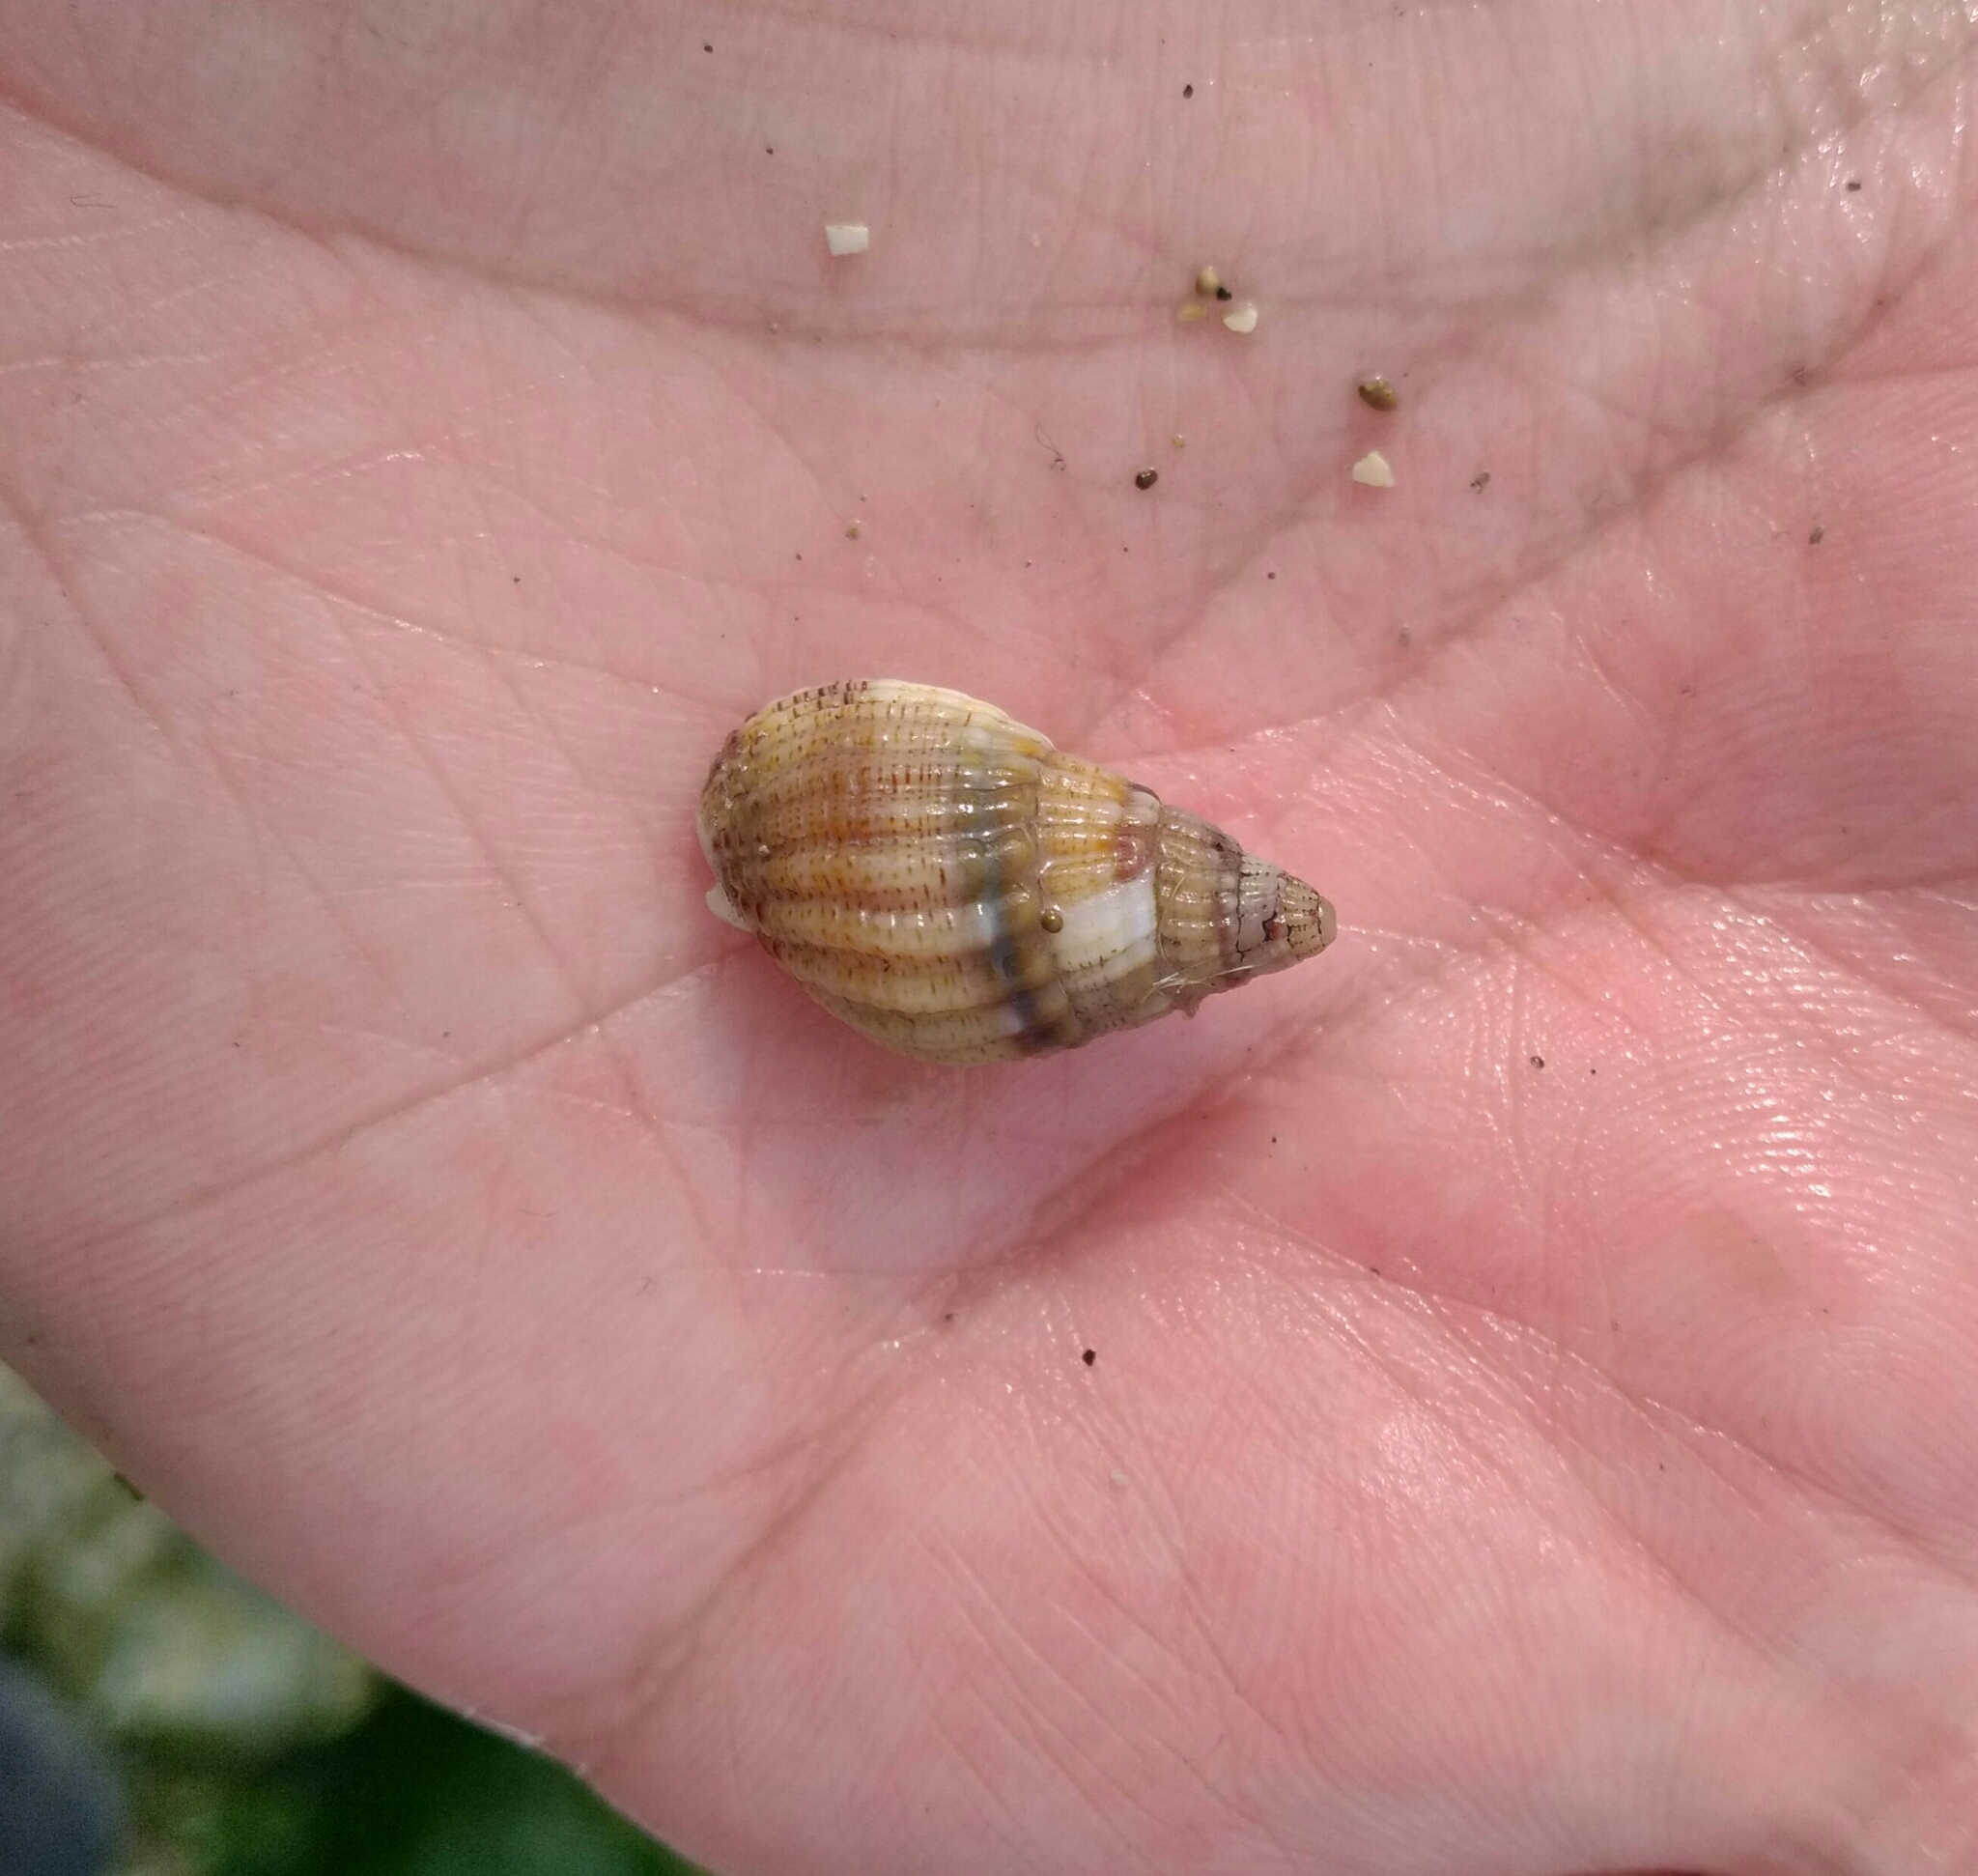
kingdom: Animalia
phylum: Mollusca
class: Gastropoda
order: Neogastropoda
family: Nassariidae
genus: Tritia
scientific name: Tritia reticulata
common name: Netted dog whelk
